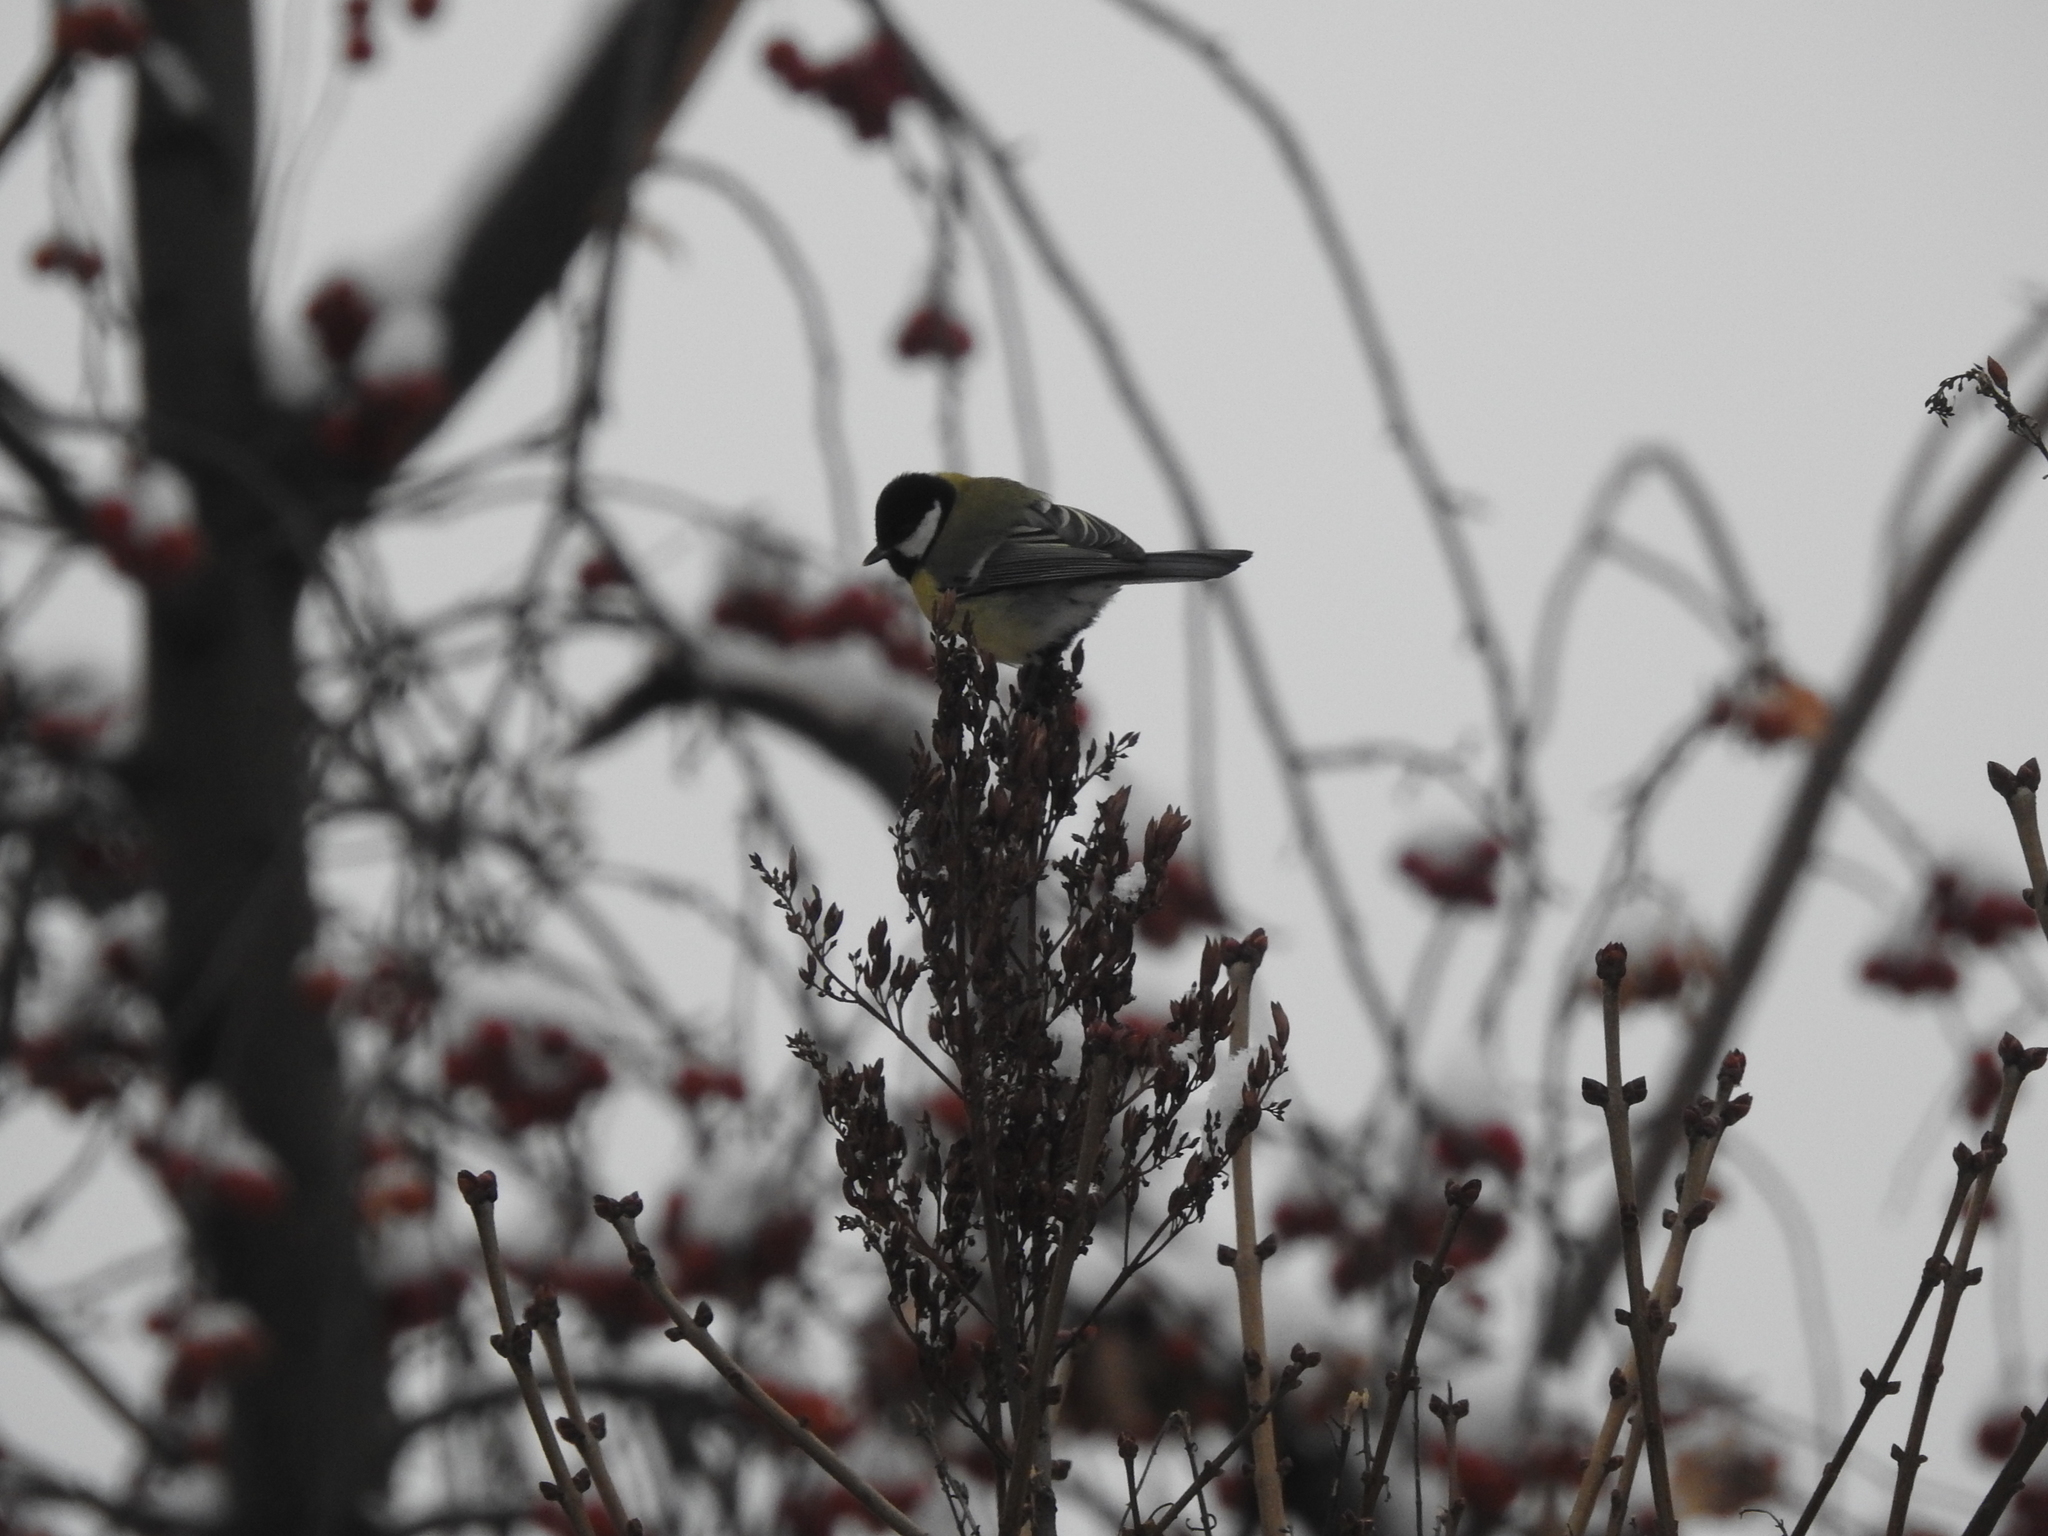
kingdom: Animalia
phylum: Chordata
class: Aves
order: Passeriformes
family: Paridae
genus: Parus
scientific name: Parus major
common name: Great tit
